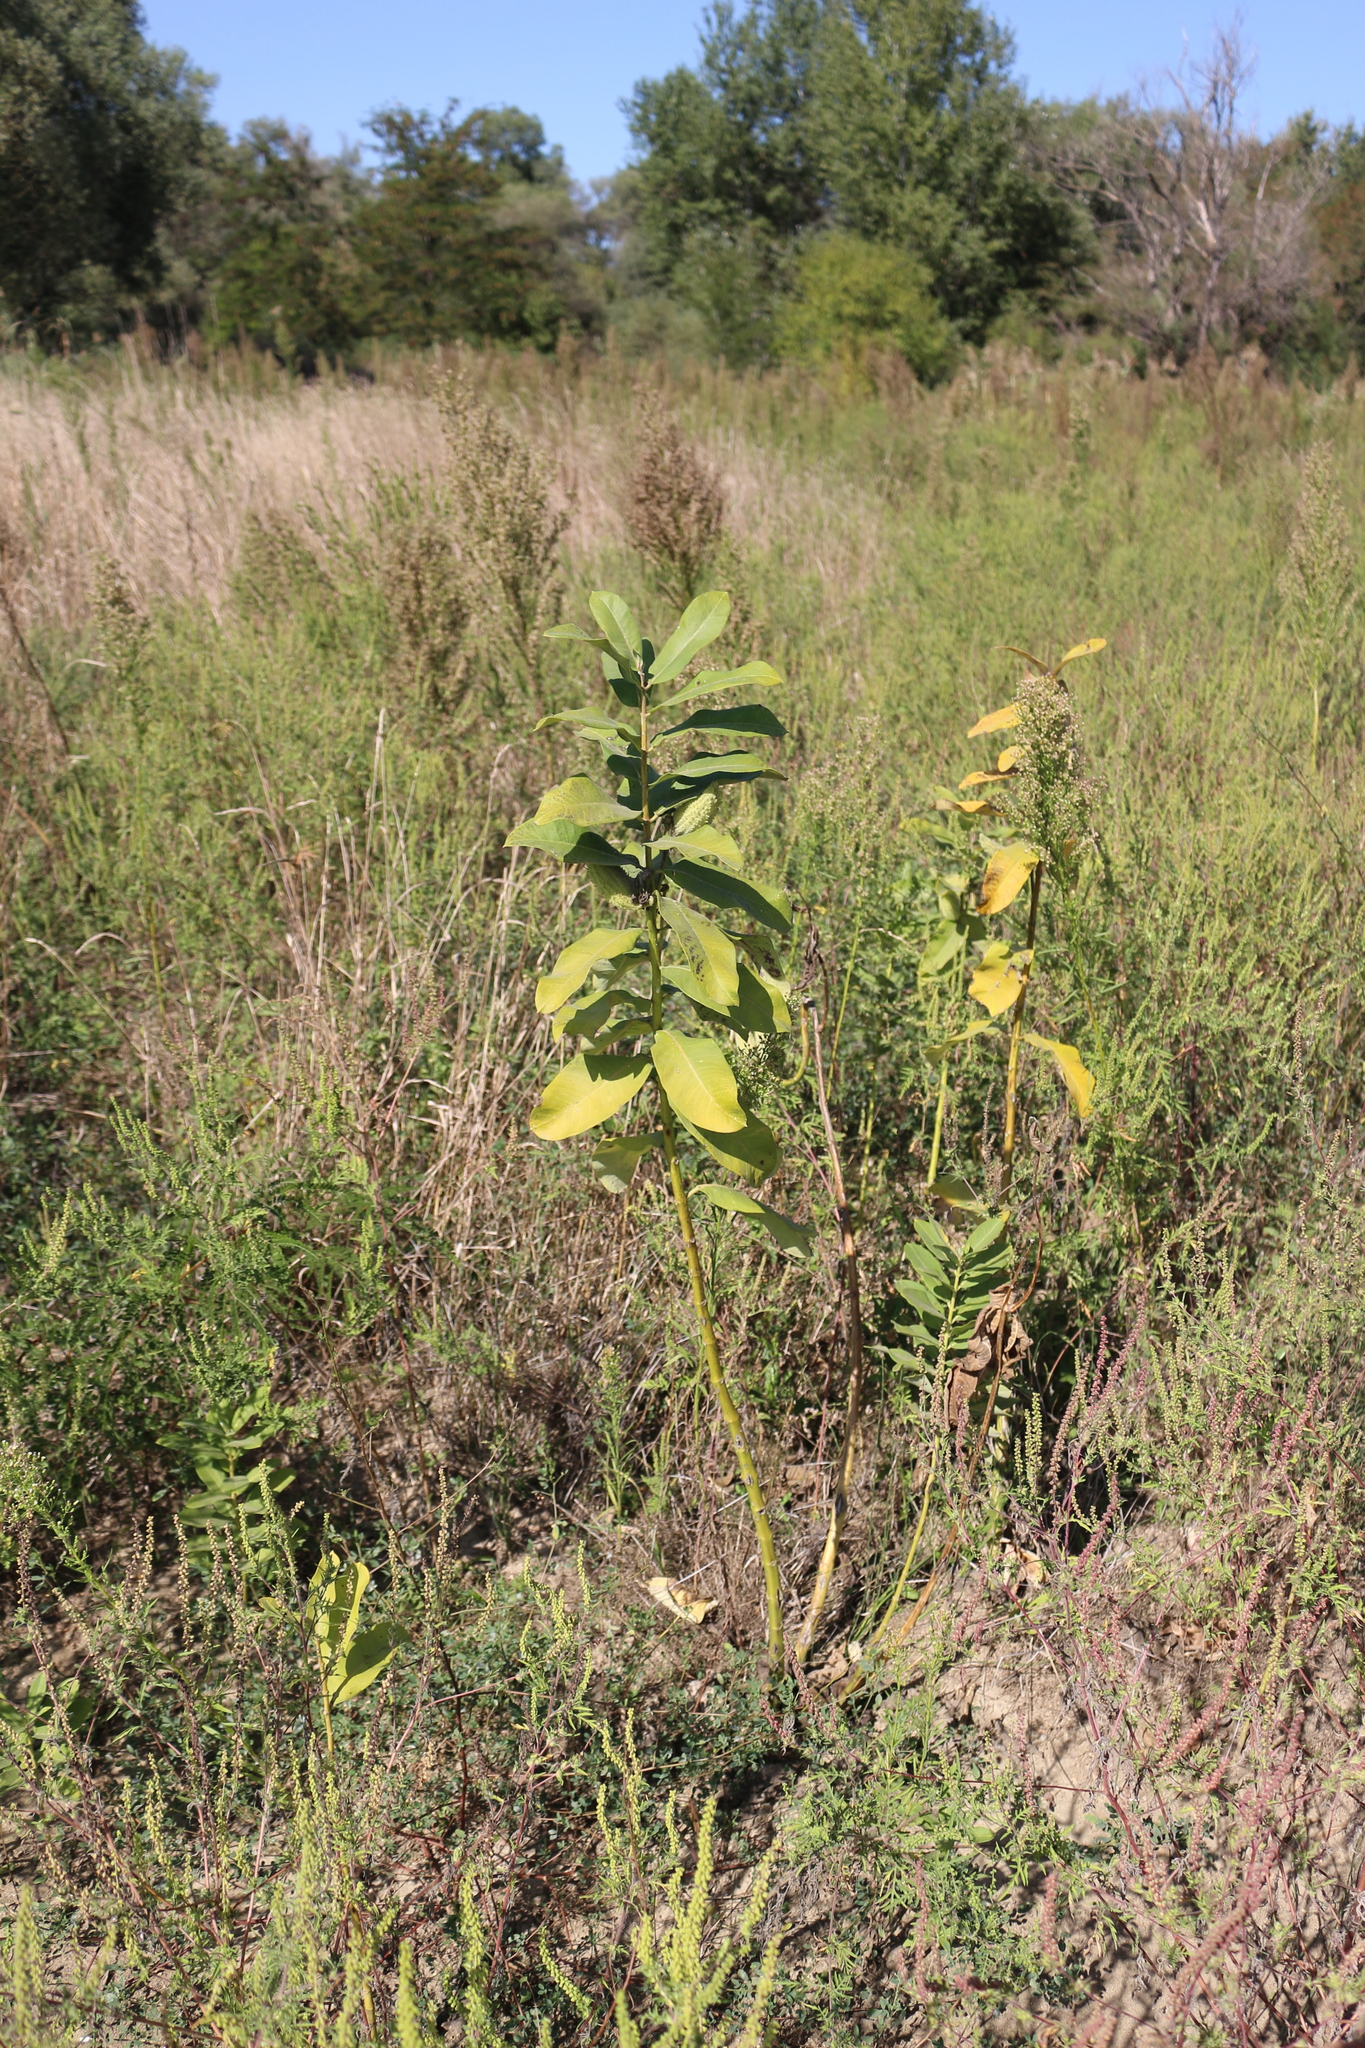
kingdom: Plantae
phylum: Tracheophyta
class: Magnoliopsida
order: Gentianales
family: Apocynaceae
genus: Asclepias
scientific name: Asclepias syriaca
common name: Common milkweed
